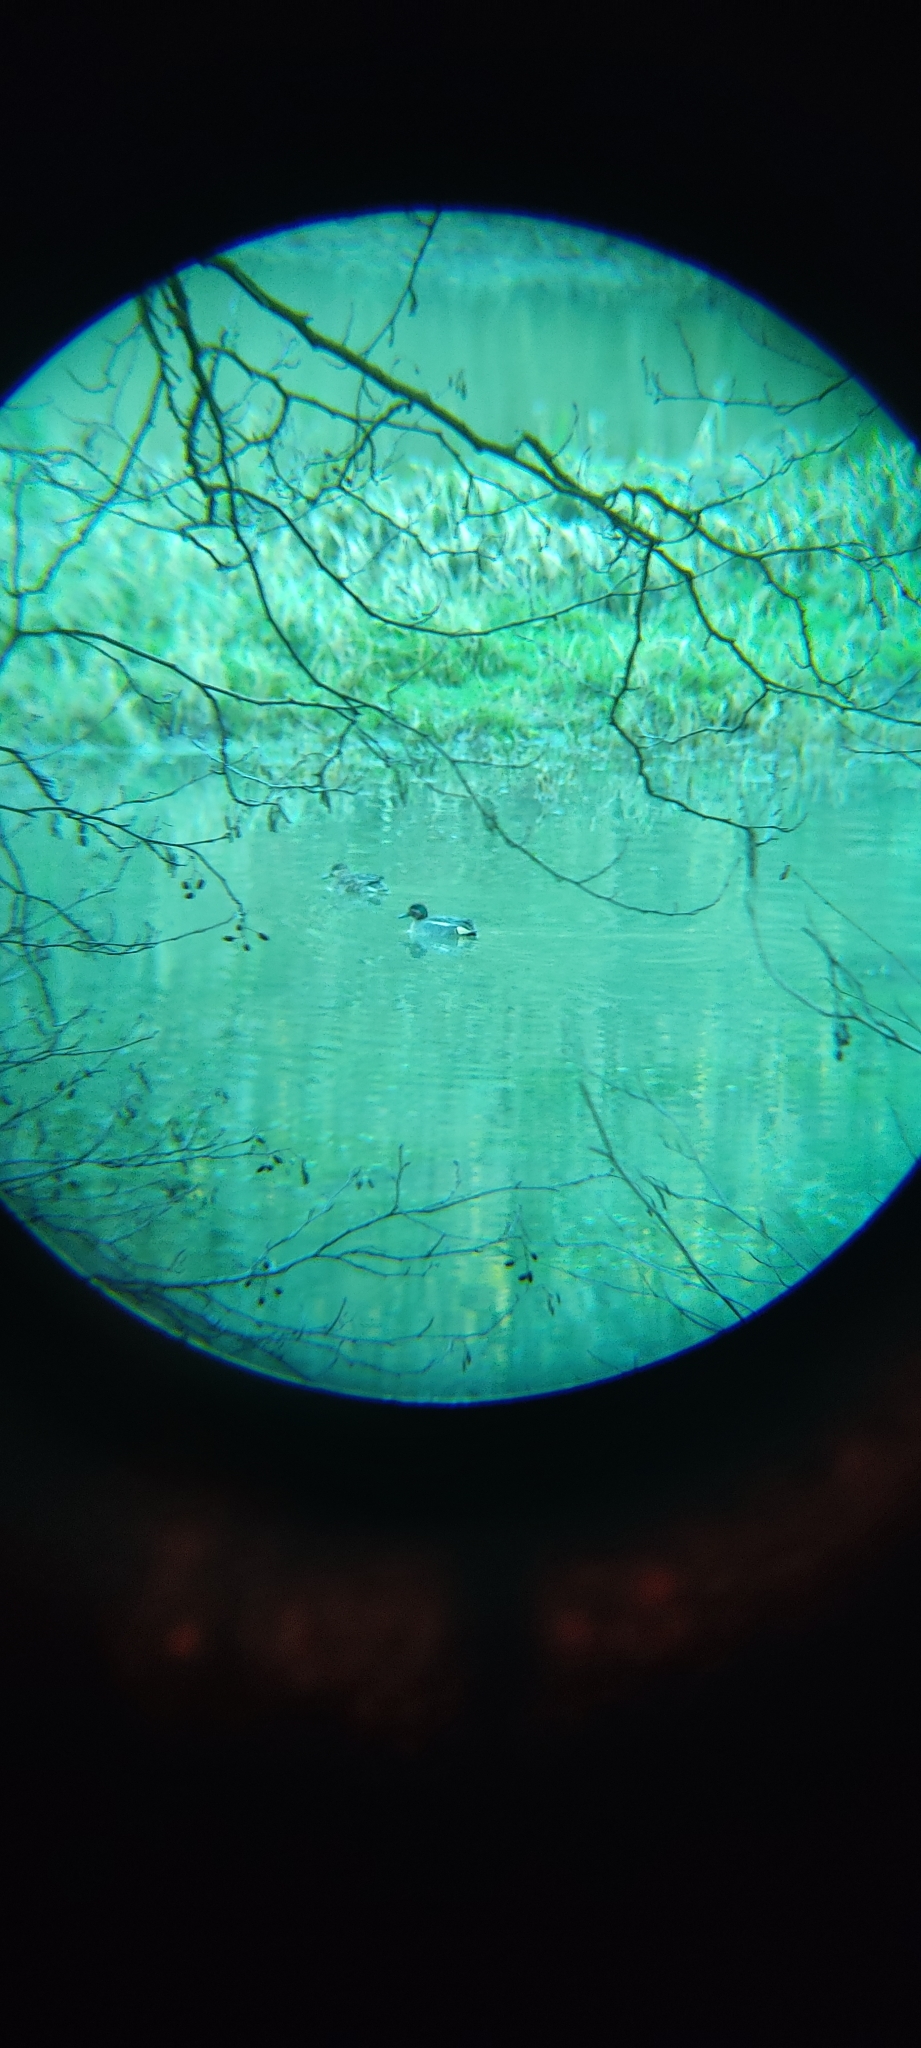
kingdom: Animalia
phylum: Chordata
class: Aves
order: Anseriformes
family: Anatidae
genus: Anas
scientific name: Anas crecca
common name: Eurasian teal
